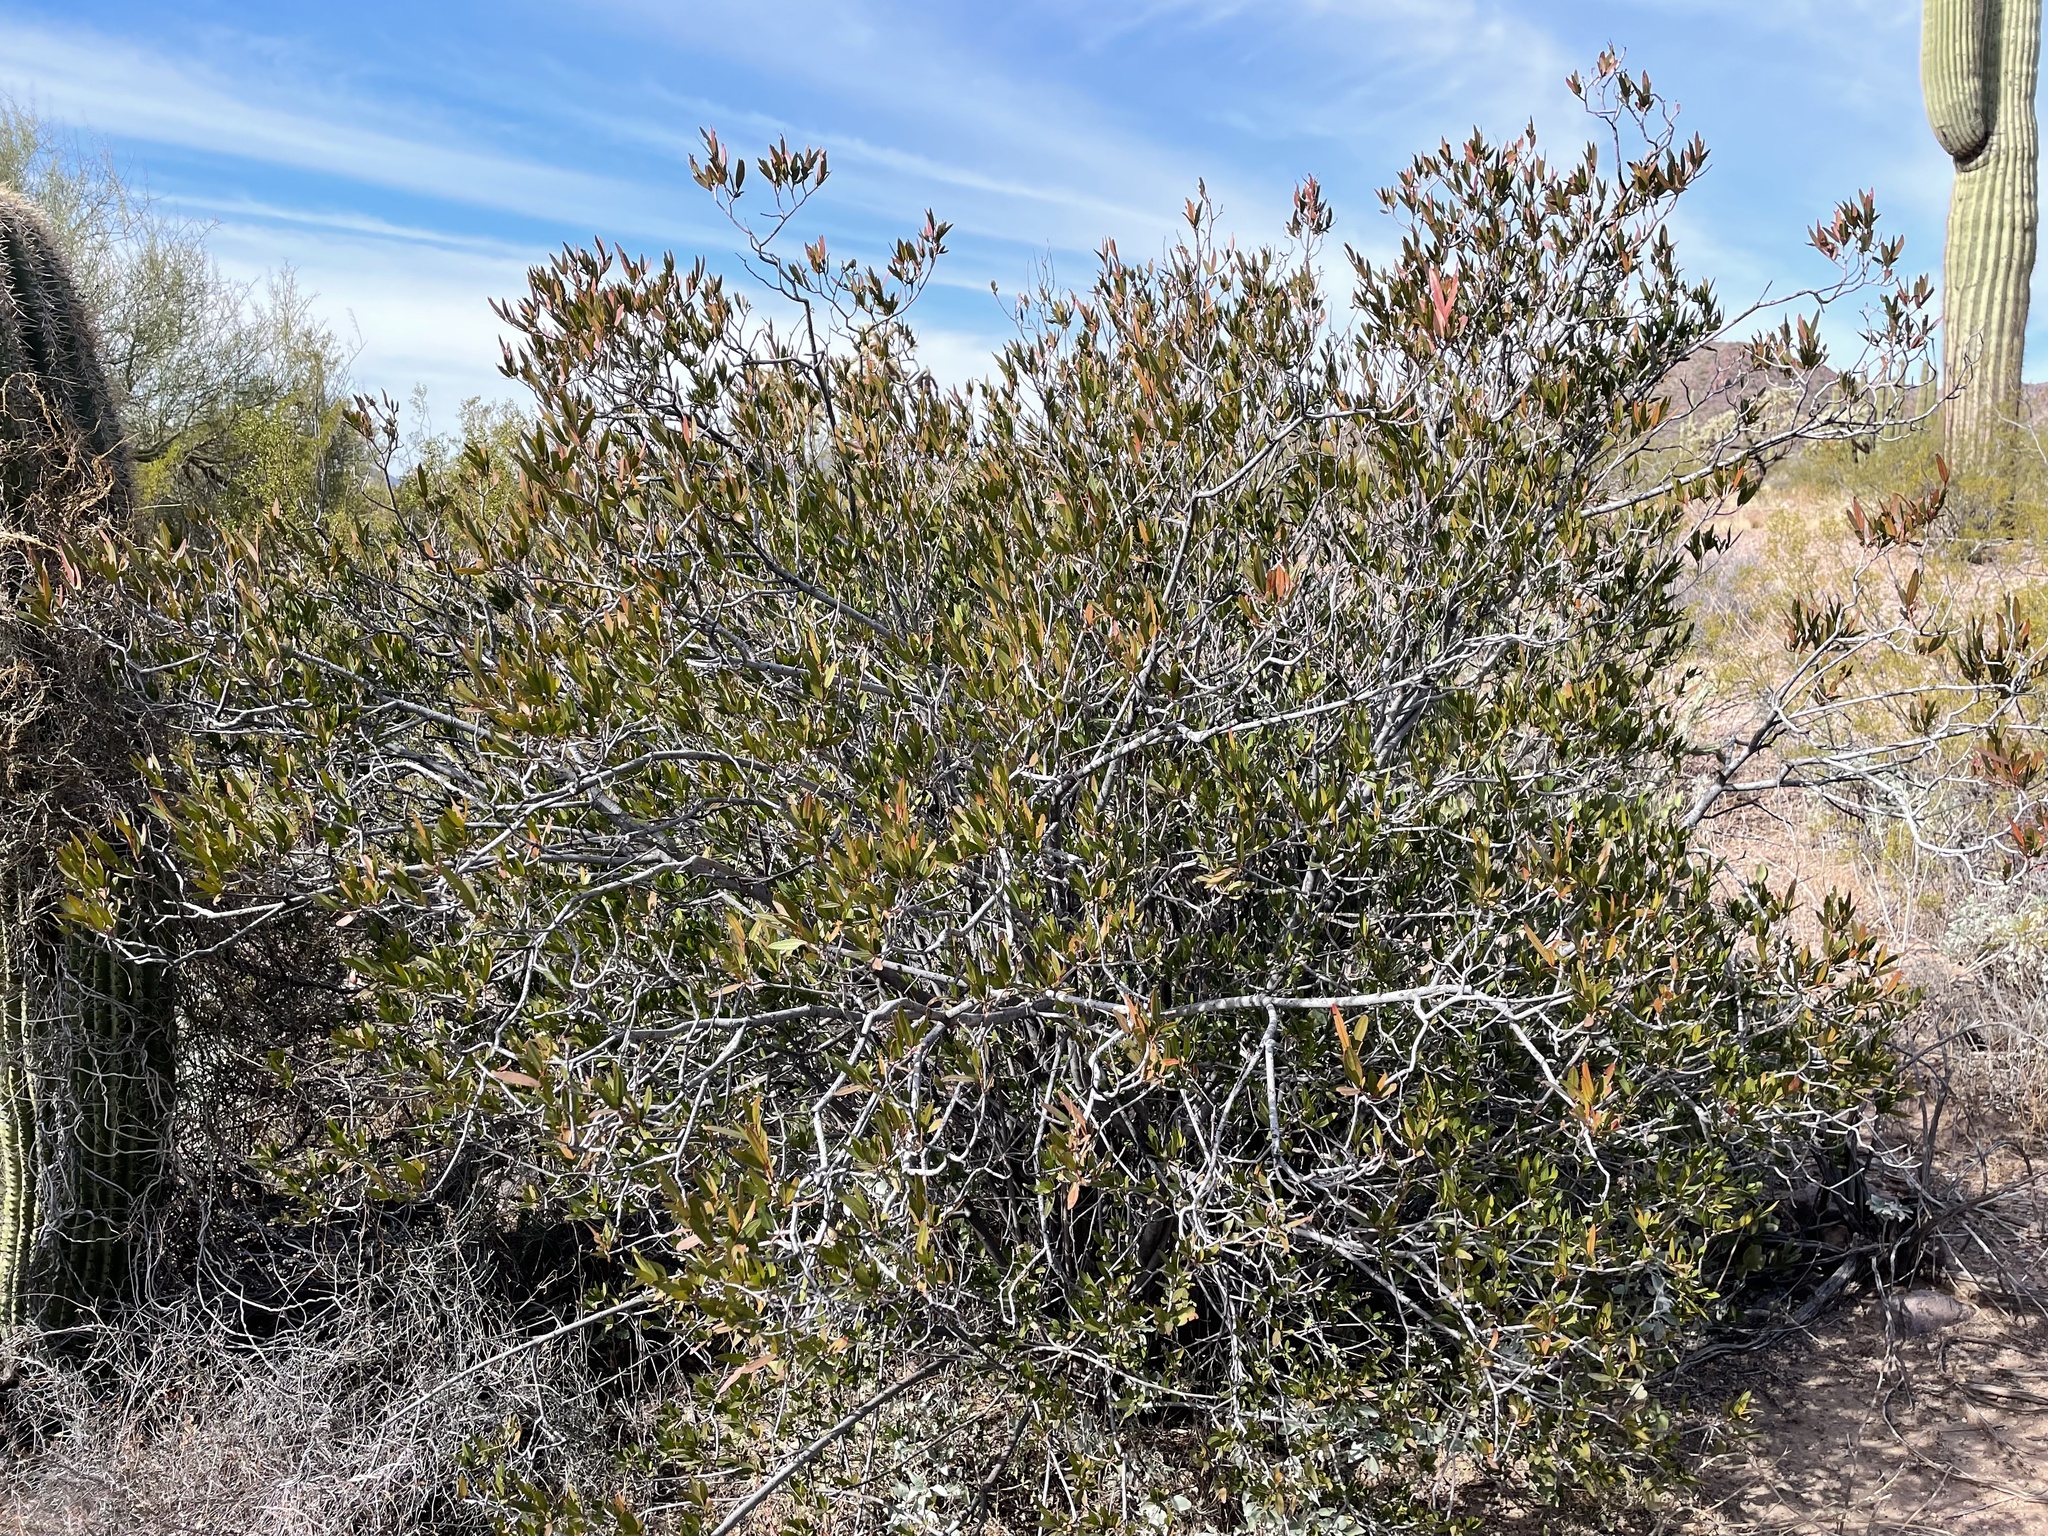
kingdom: Plantae
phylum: Tracheophyta
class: Magnoliopsida
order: Malpighiales
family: Euphorbiaceae
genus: Pleradenophora
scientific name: Pleradenophora bilocularis
